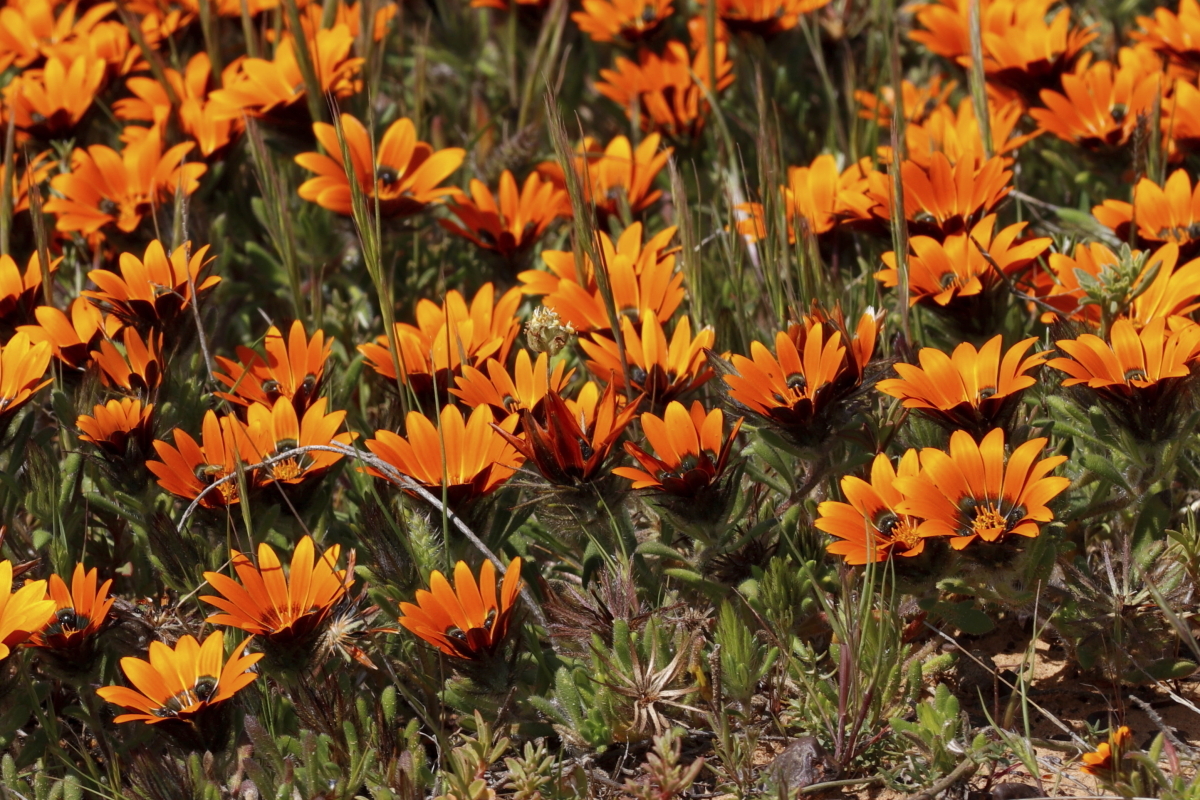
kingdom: Plantae
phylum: Tracheophyta
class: Magnoliopsida
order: Asterales
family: Asteraceae
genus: Gorteria
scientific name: Gorteria diffusa
